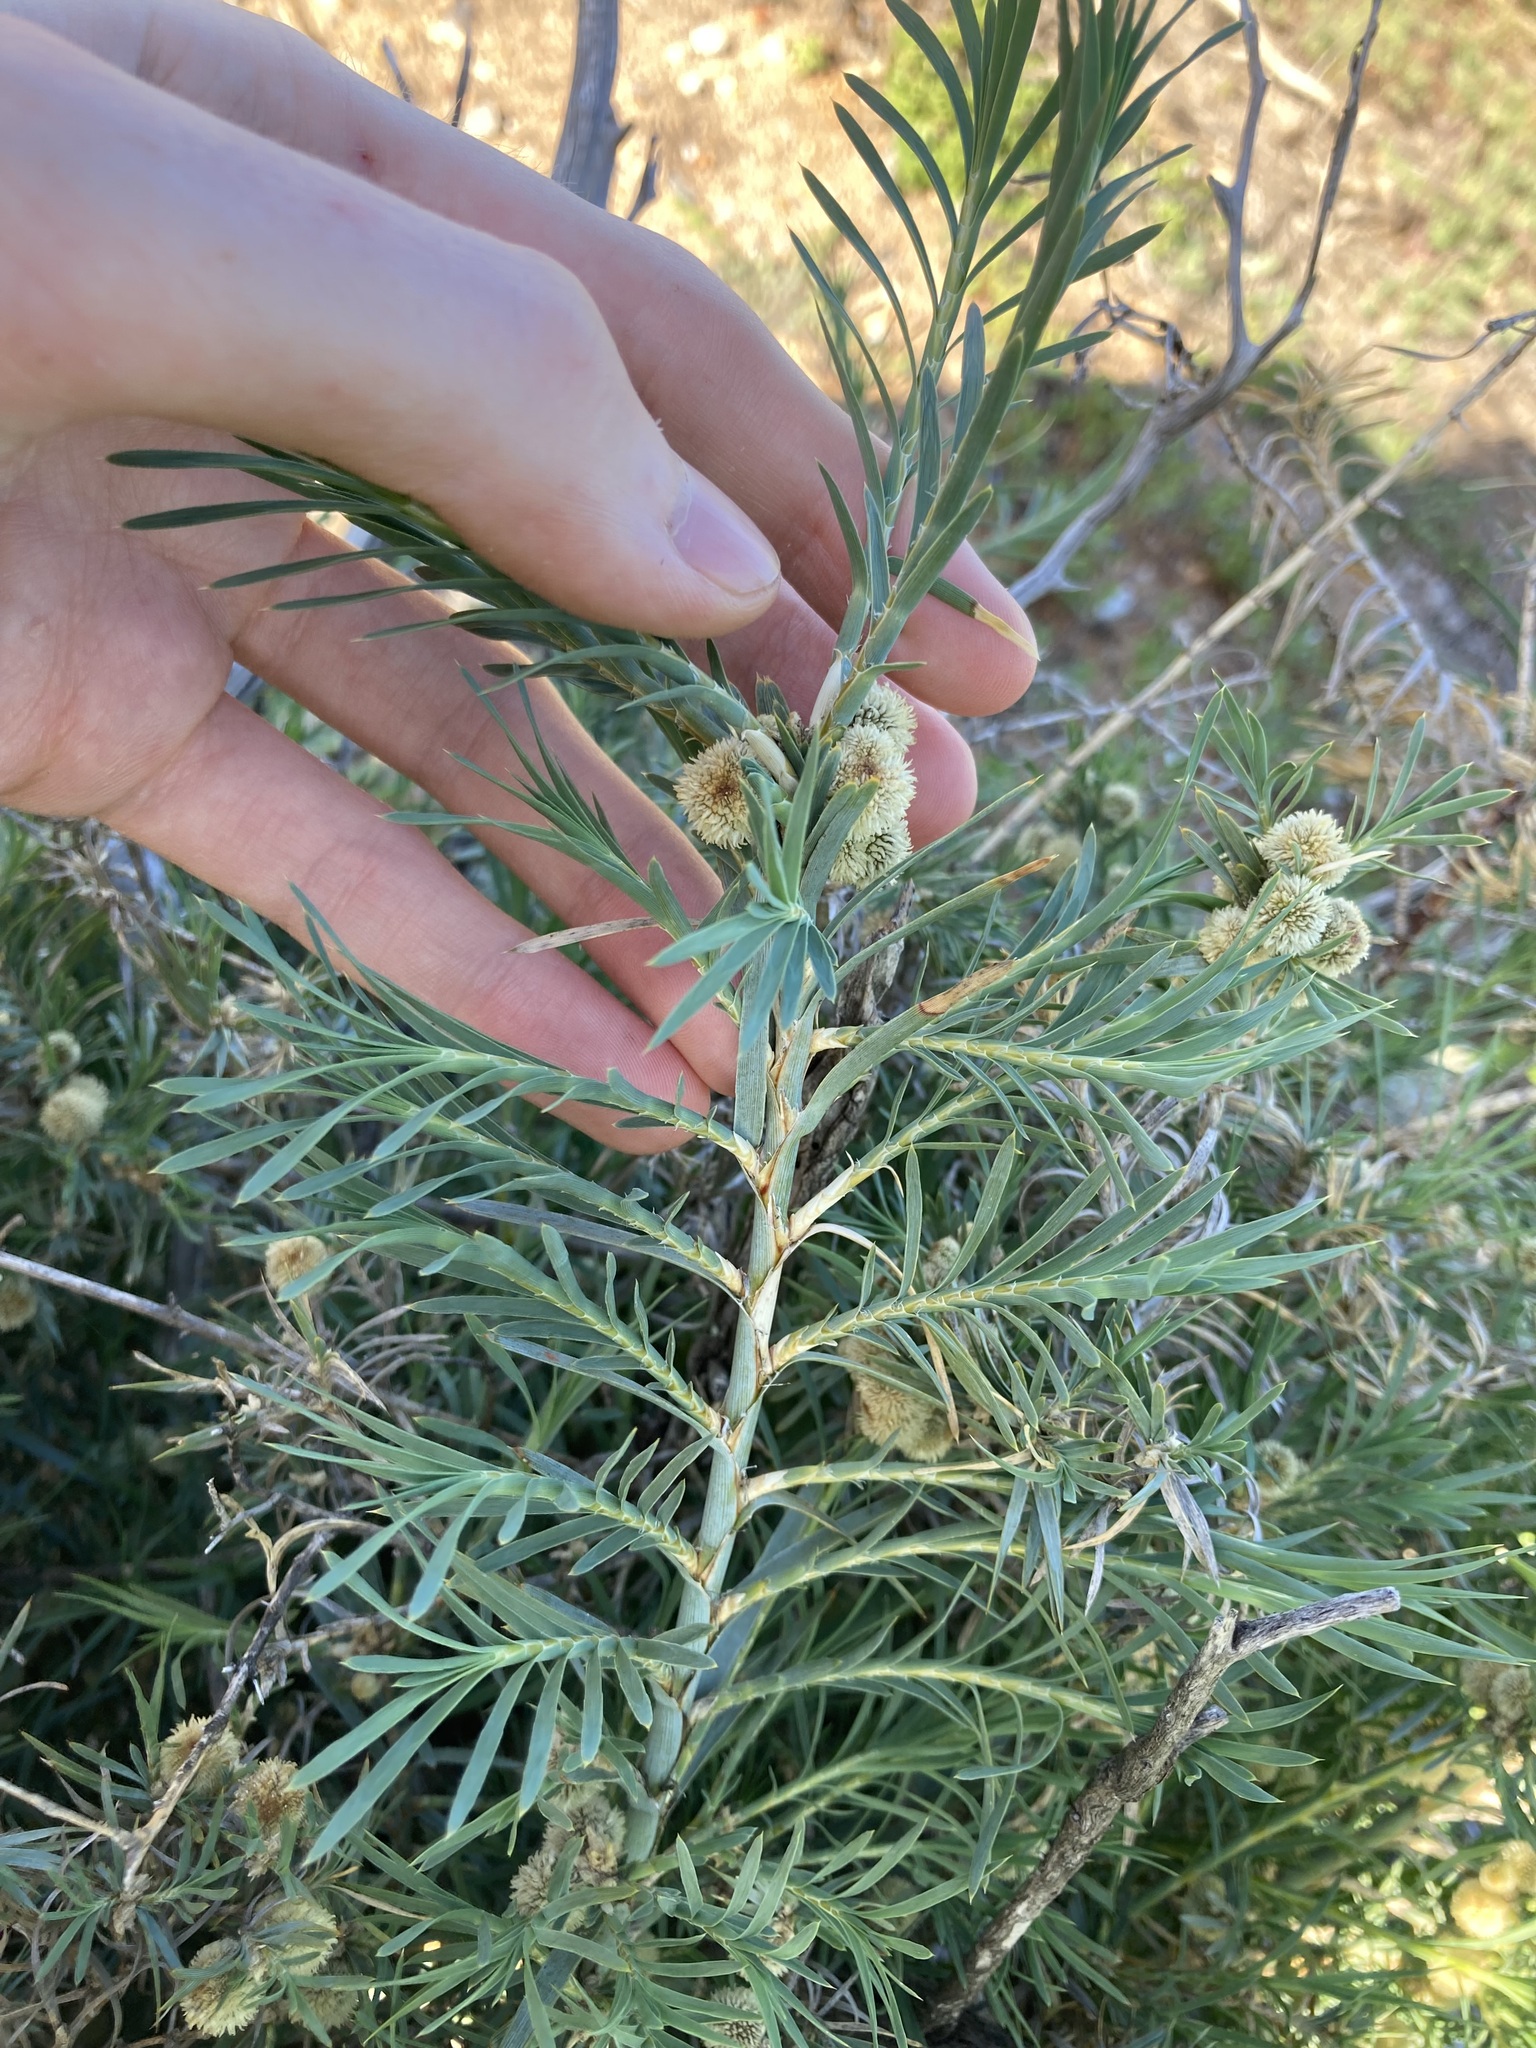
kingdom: Plantae
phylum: Tracheophyta
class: Liliopsida
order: Asparagales
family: Asparagaceae
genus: Acanthocarpus
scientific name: Acanthocarpus preissii
